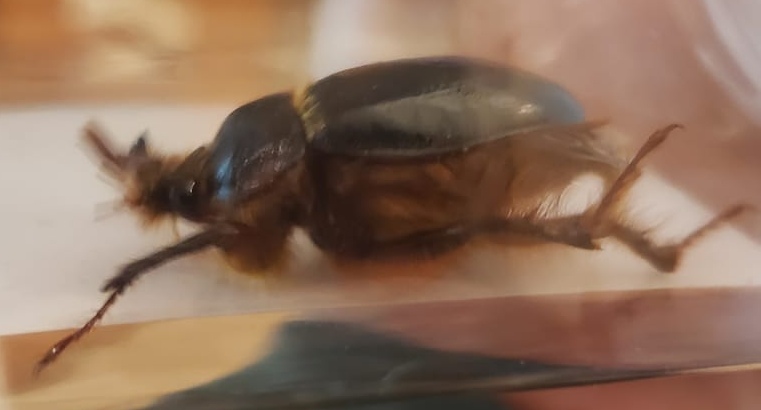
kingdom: Animalia
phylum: Arthropoda
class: Insecta
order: Coleoptera
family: Pleocomidae
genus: Pleocoma
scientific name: Pleocoma australis
